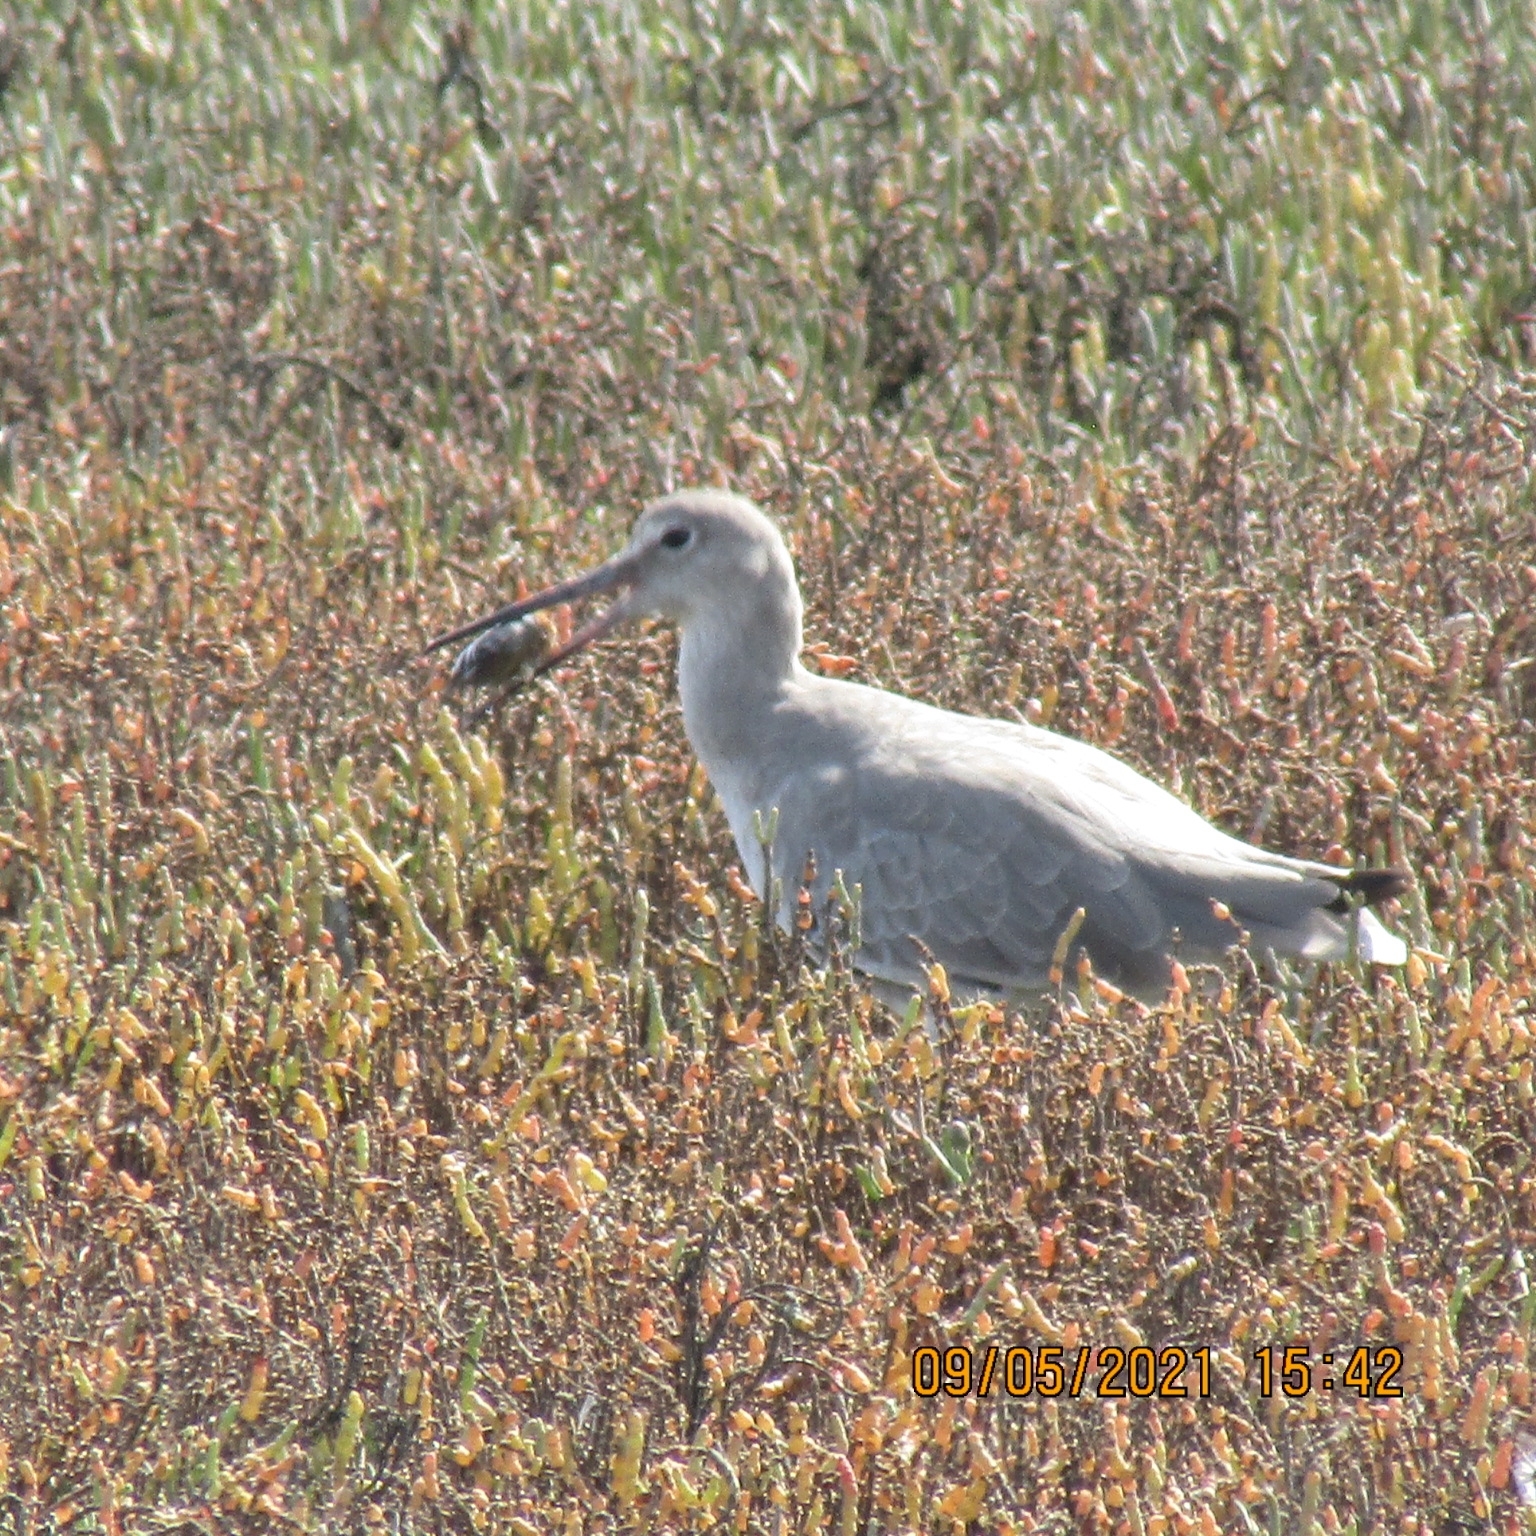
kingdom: Animalia
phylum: Chordata
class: Aves
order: Charadriiformes
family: Scolopacidae
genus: Tringa
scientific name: Tringa semipalmata
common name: Willet
